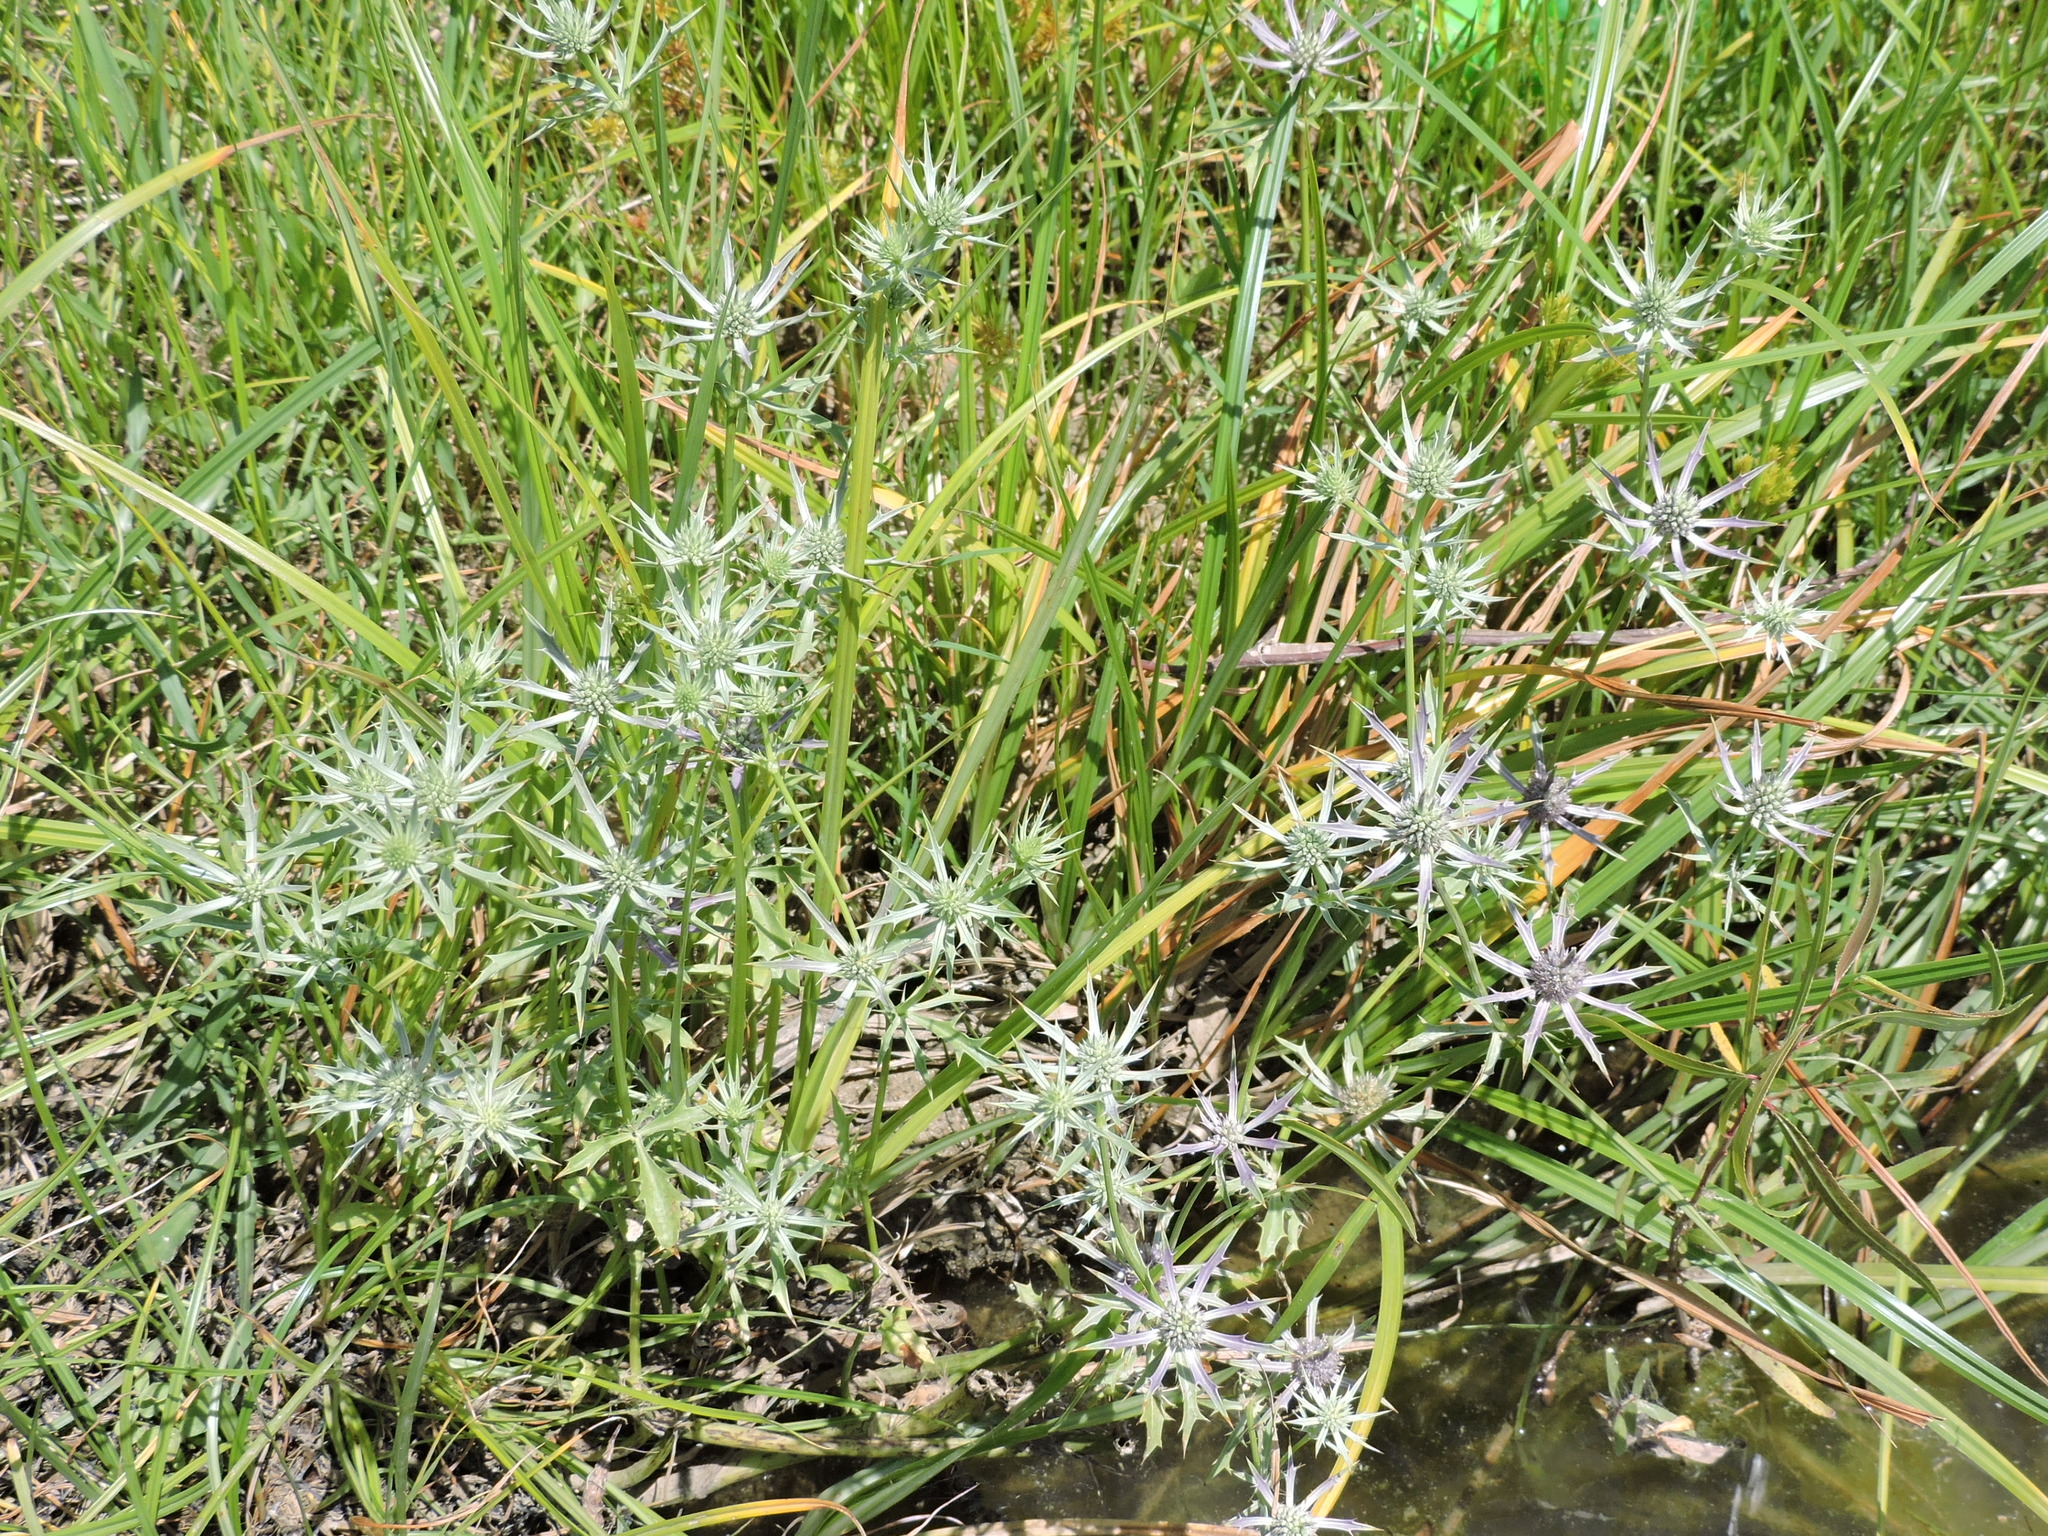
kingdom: Plantae
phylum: Tracheophyta
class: Magnoliopsida
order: Apiales
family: Apiaceae
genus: Eryngium
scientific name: Eryngium hookeri
